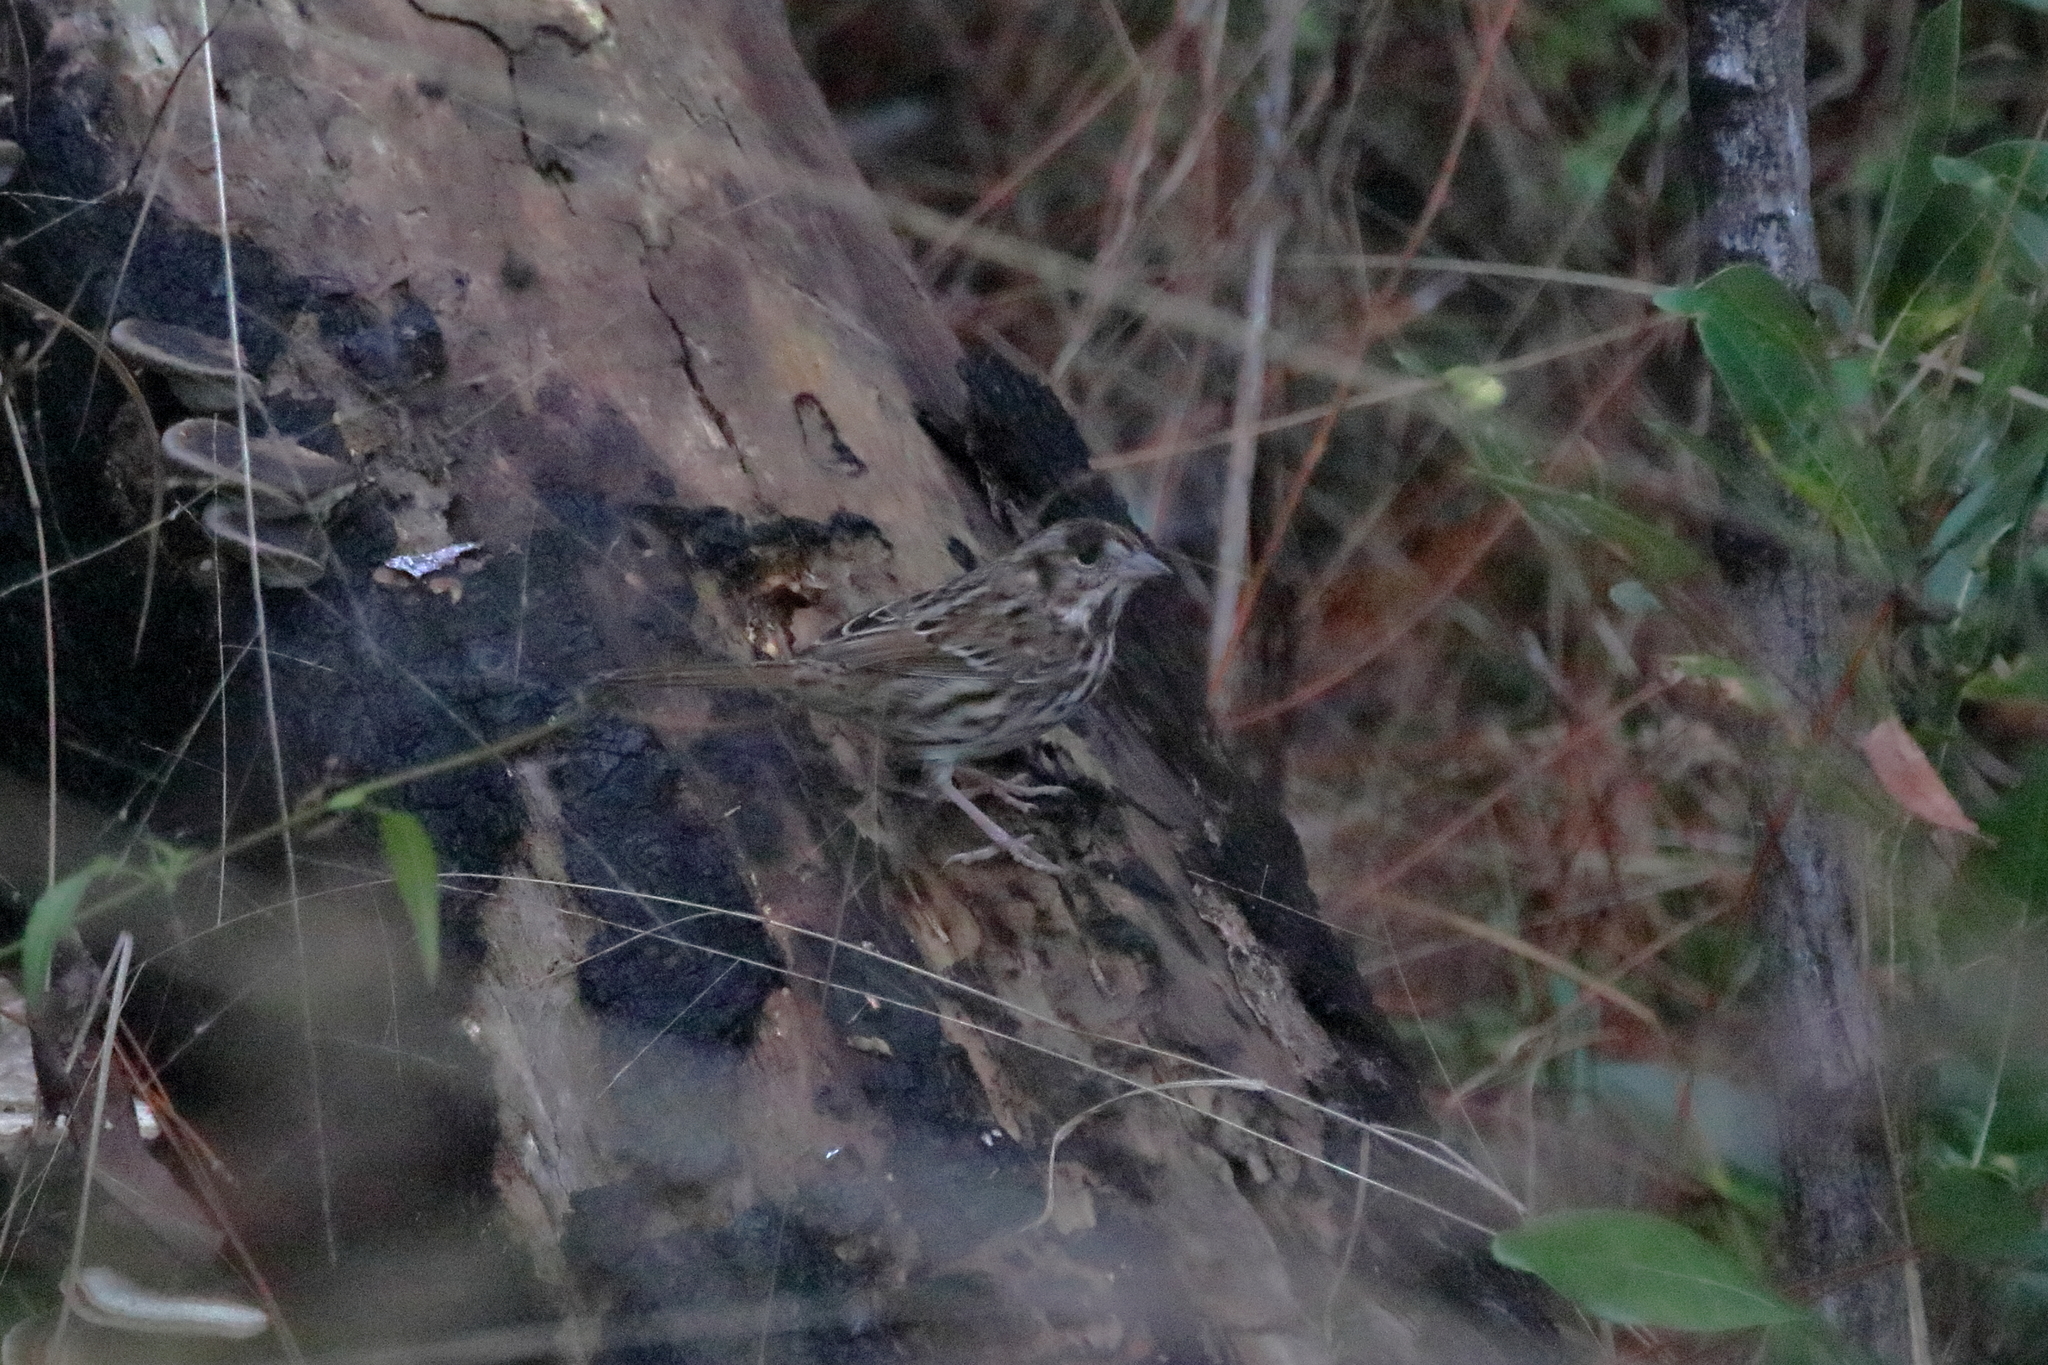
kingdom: Animalia
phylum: Chordata
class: Aves
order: Passeriformes
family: Passerellidae
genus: Melospiza
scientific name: Melospiza melodia
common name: Song sparrow
